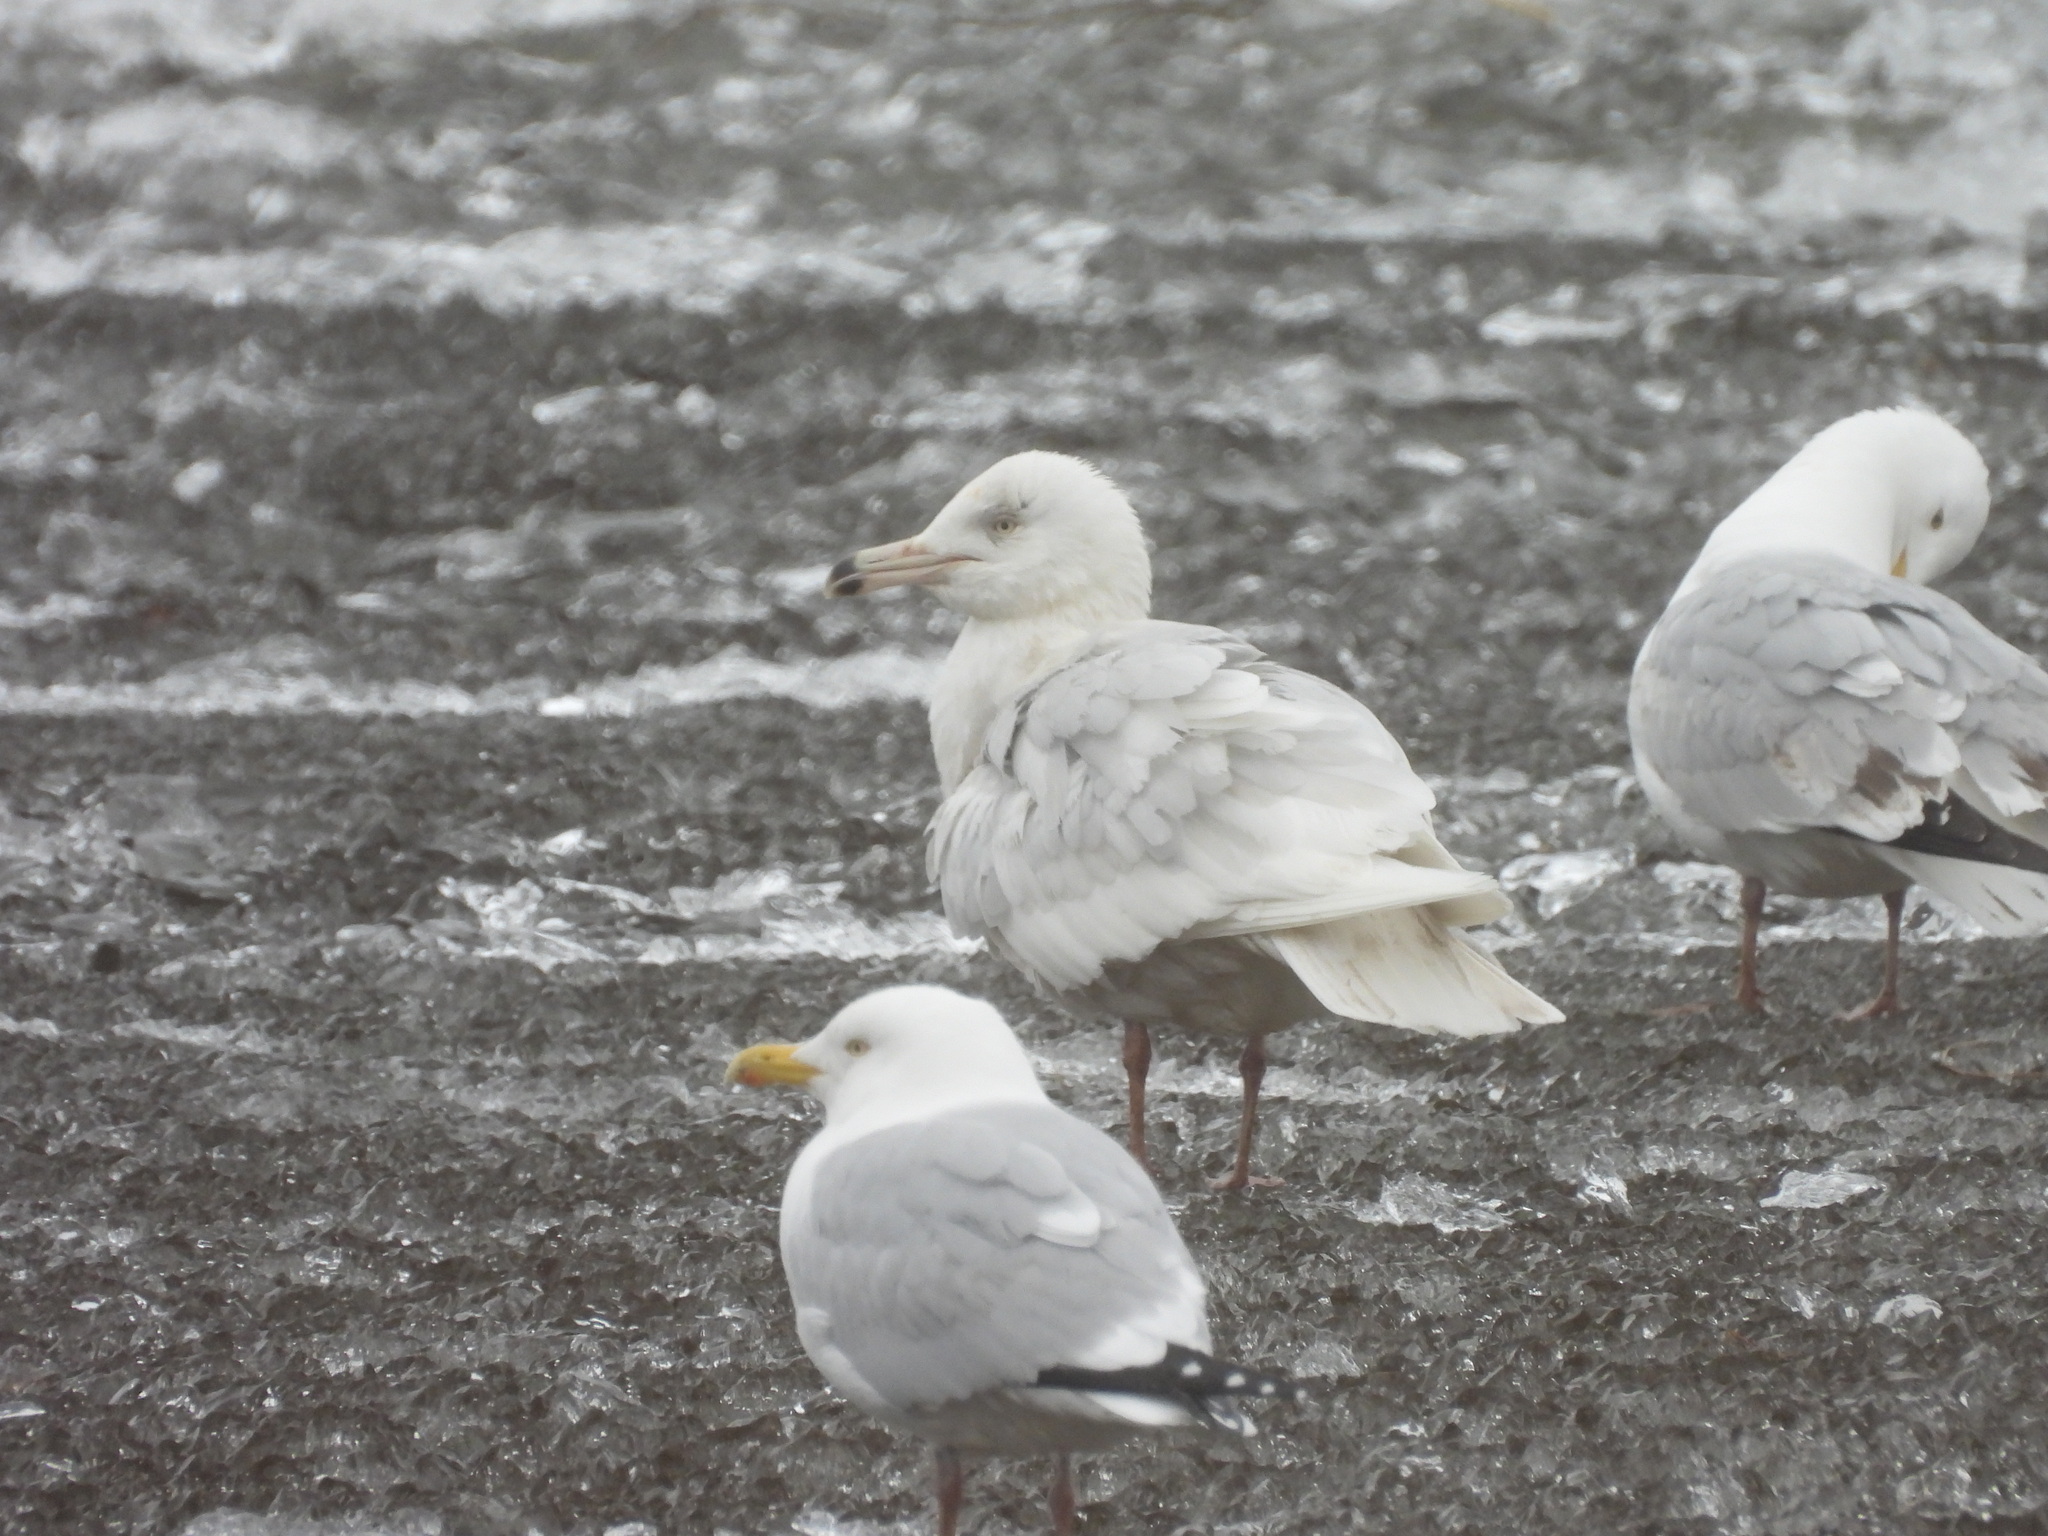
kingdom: Animalia
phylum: Chordata
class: Aves
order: Charadriiformes
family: Laridae
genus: Larus
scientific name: Larus hyperboreus
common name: Glaucous gull
